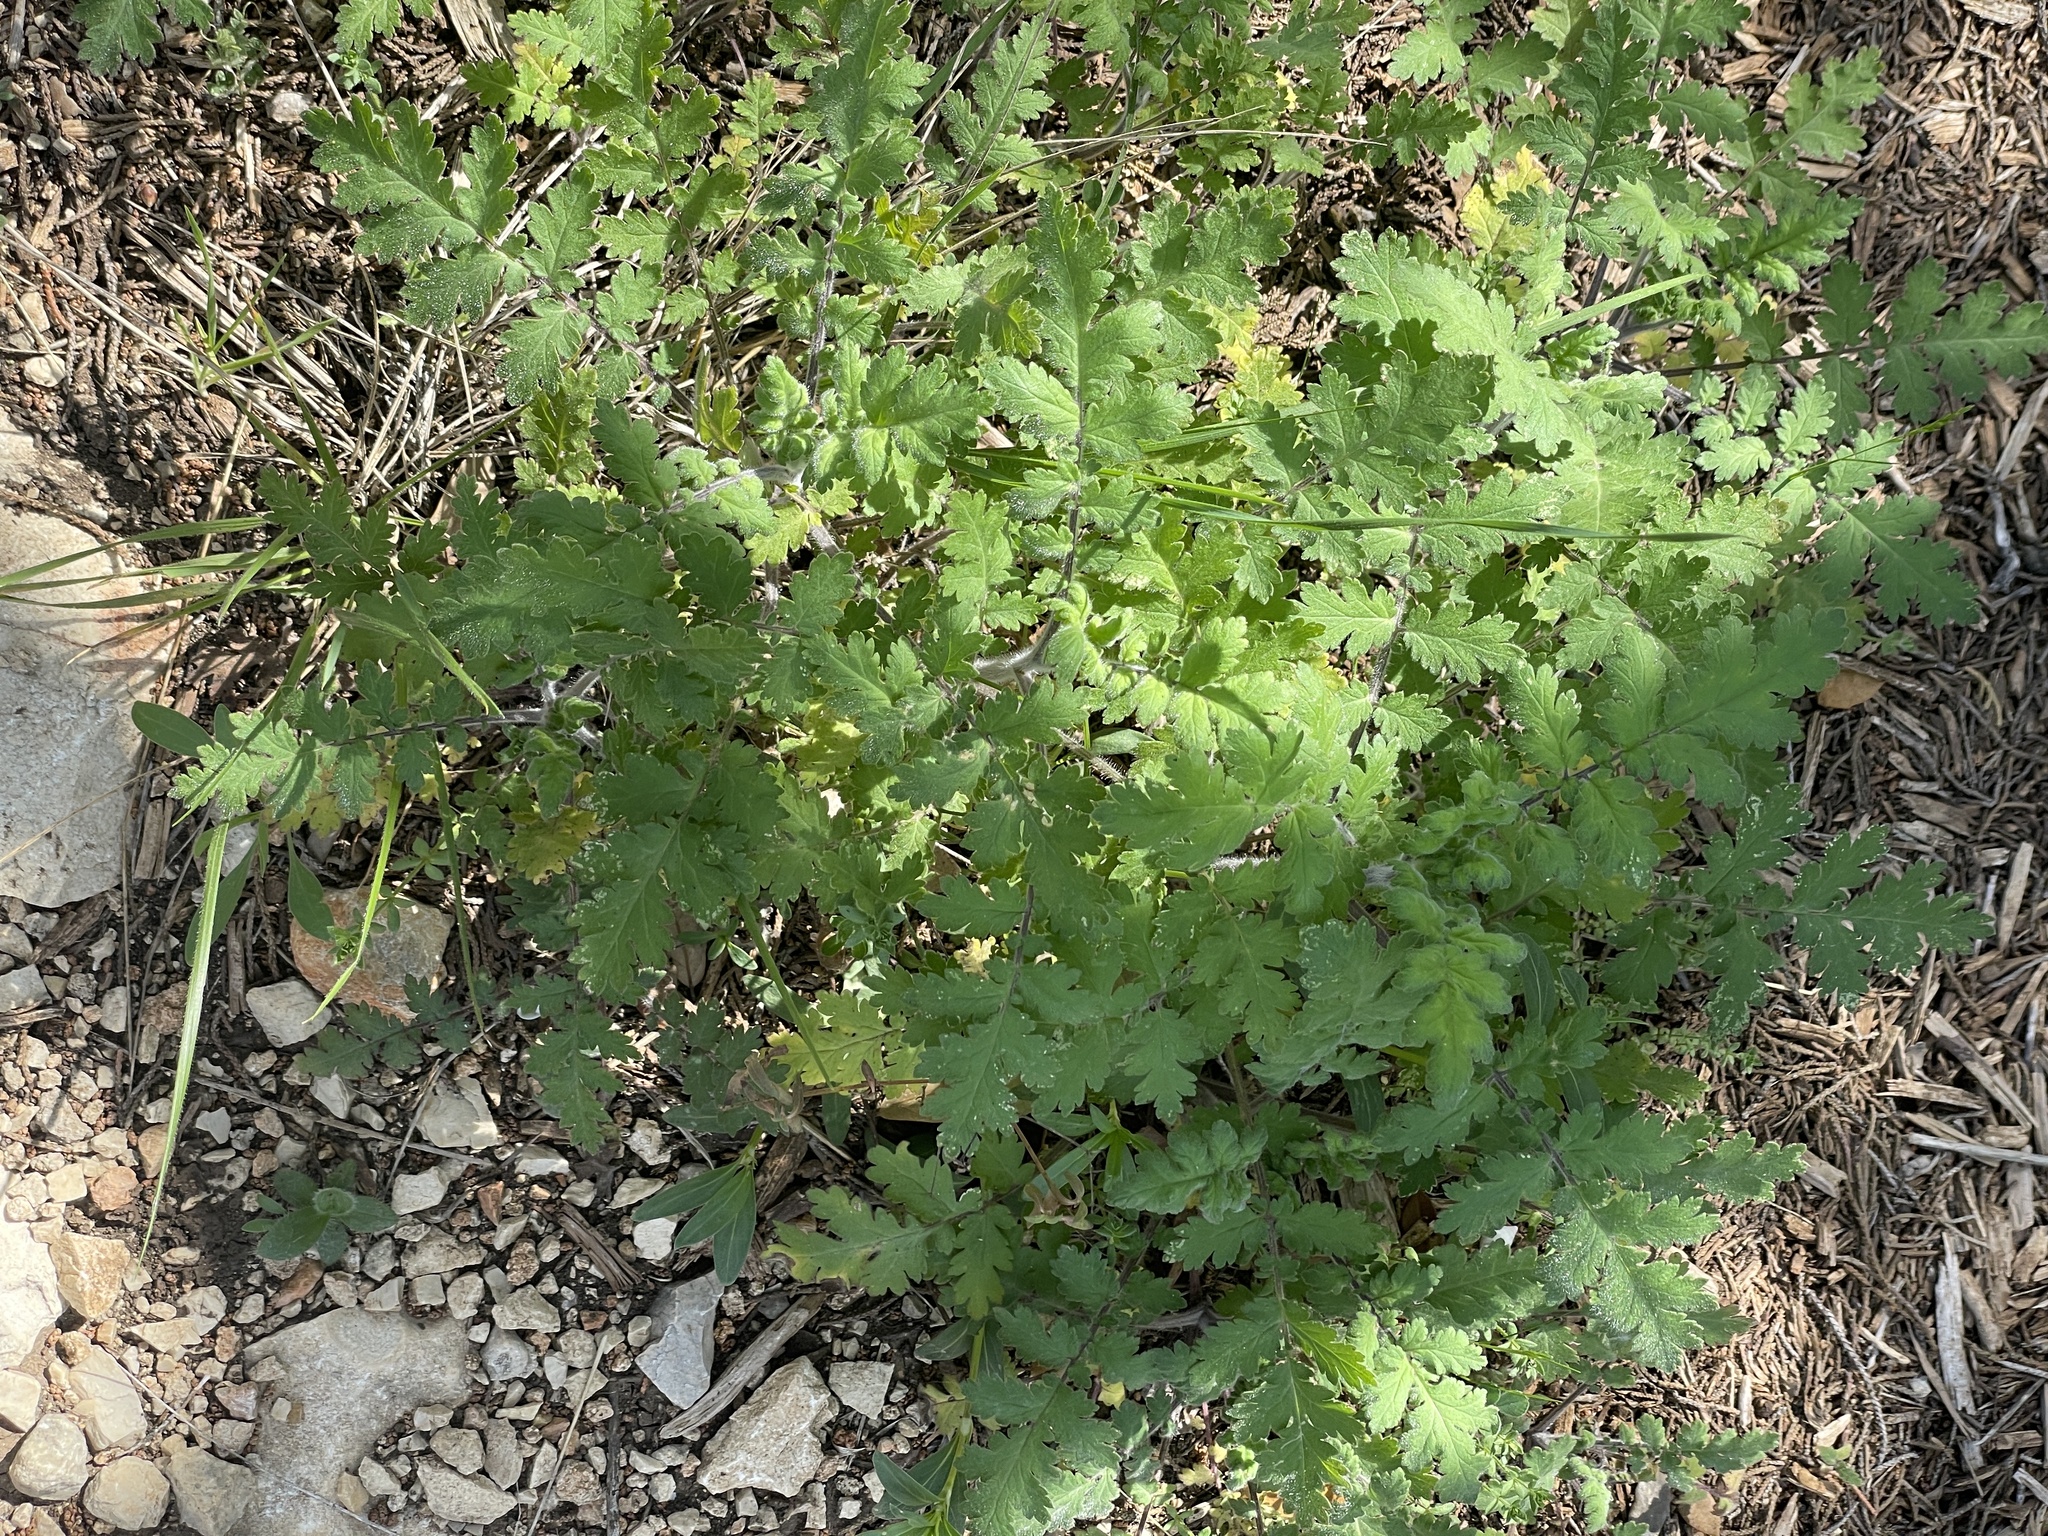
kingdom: Plantae
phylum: Tracheophyta
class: Magnoliopsida
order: Boraginales
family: Hydrophyllaceae
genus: Phacelia
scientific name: Phacelia congesta
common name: Blue curls
